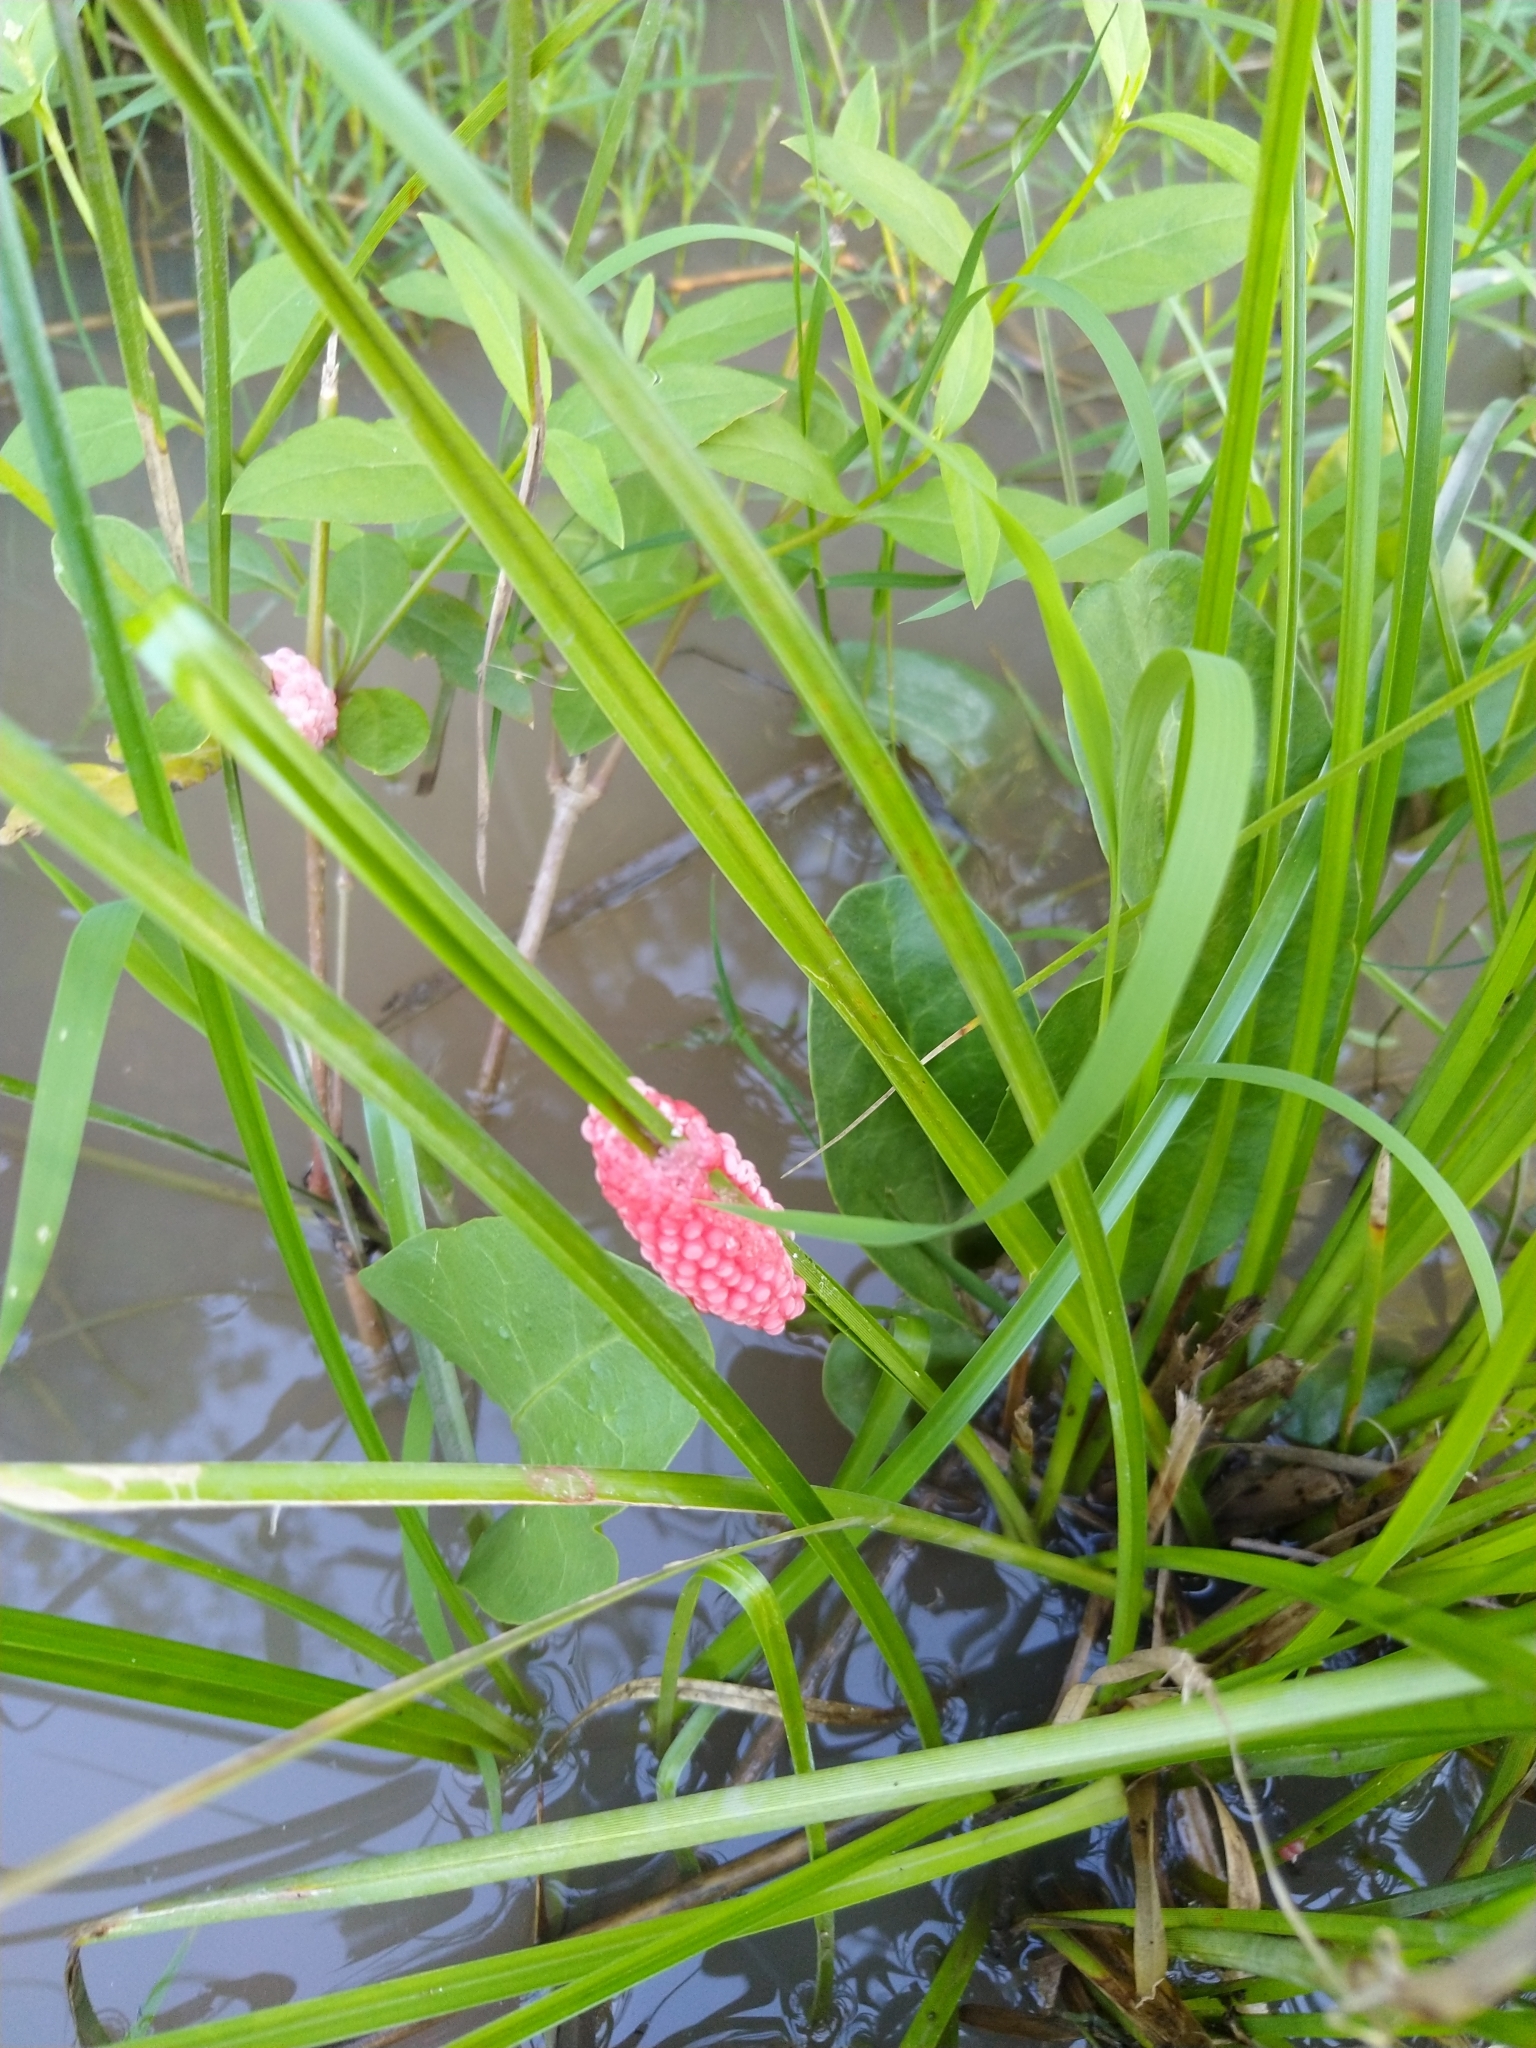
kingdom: Animalia
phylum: Mollusca
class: Gastropoda
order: Architaenioglossa
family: Ampullariidae
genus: Pomacea
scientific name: Pomacea canaliculata
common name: Channeled applesnail
